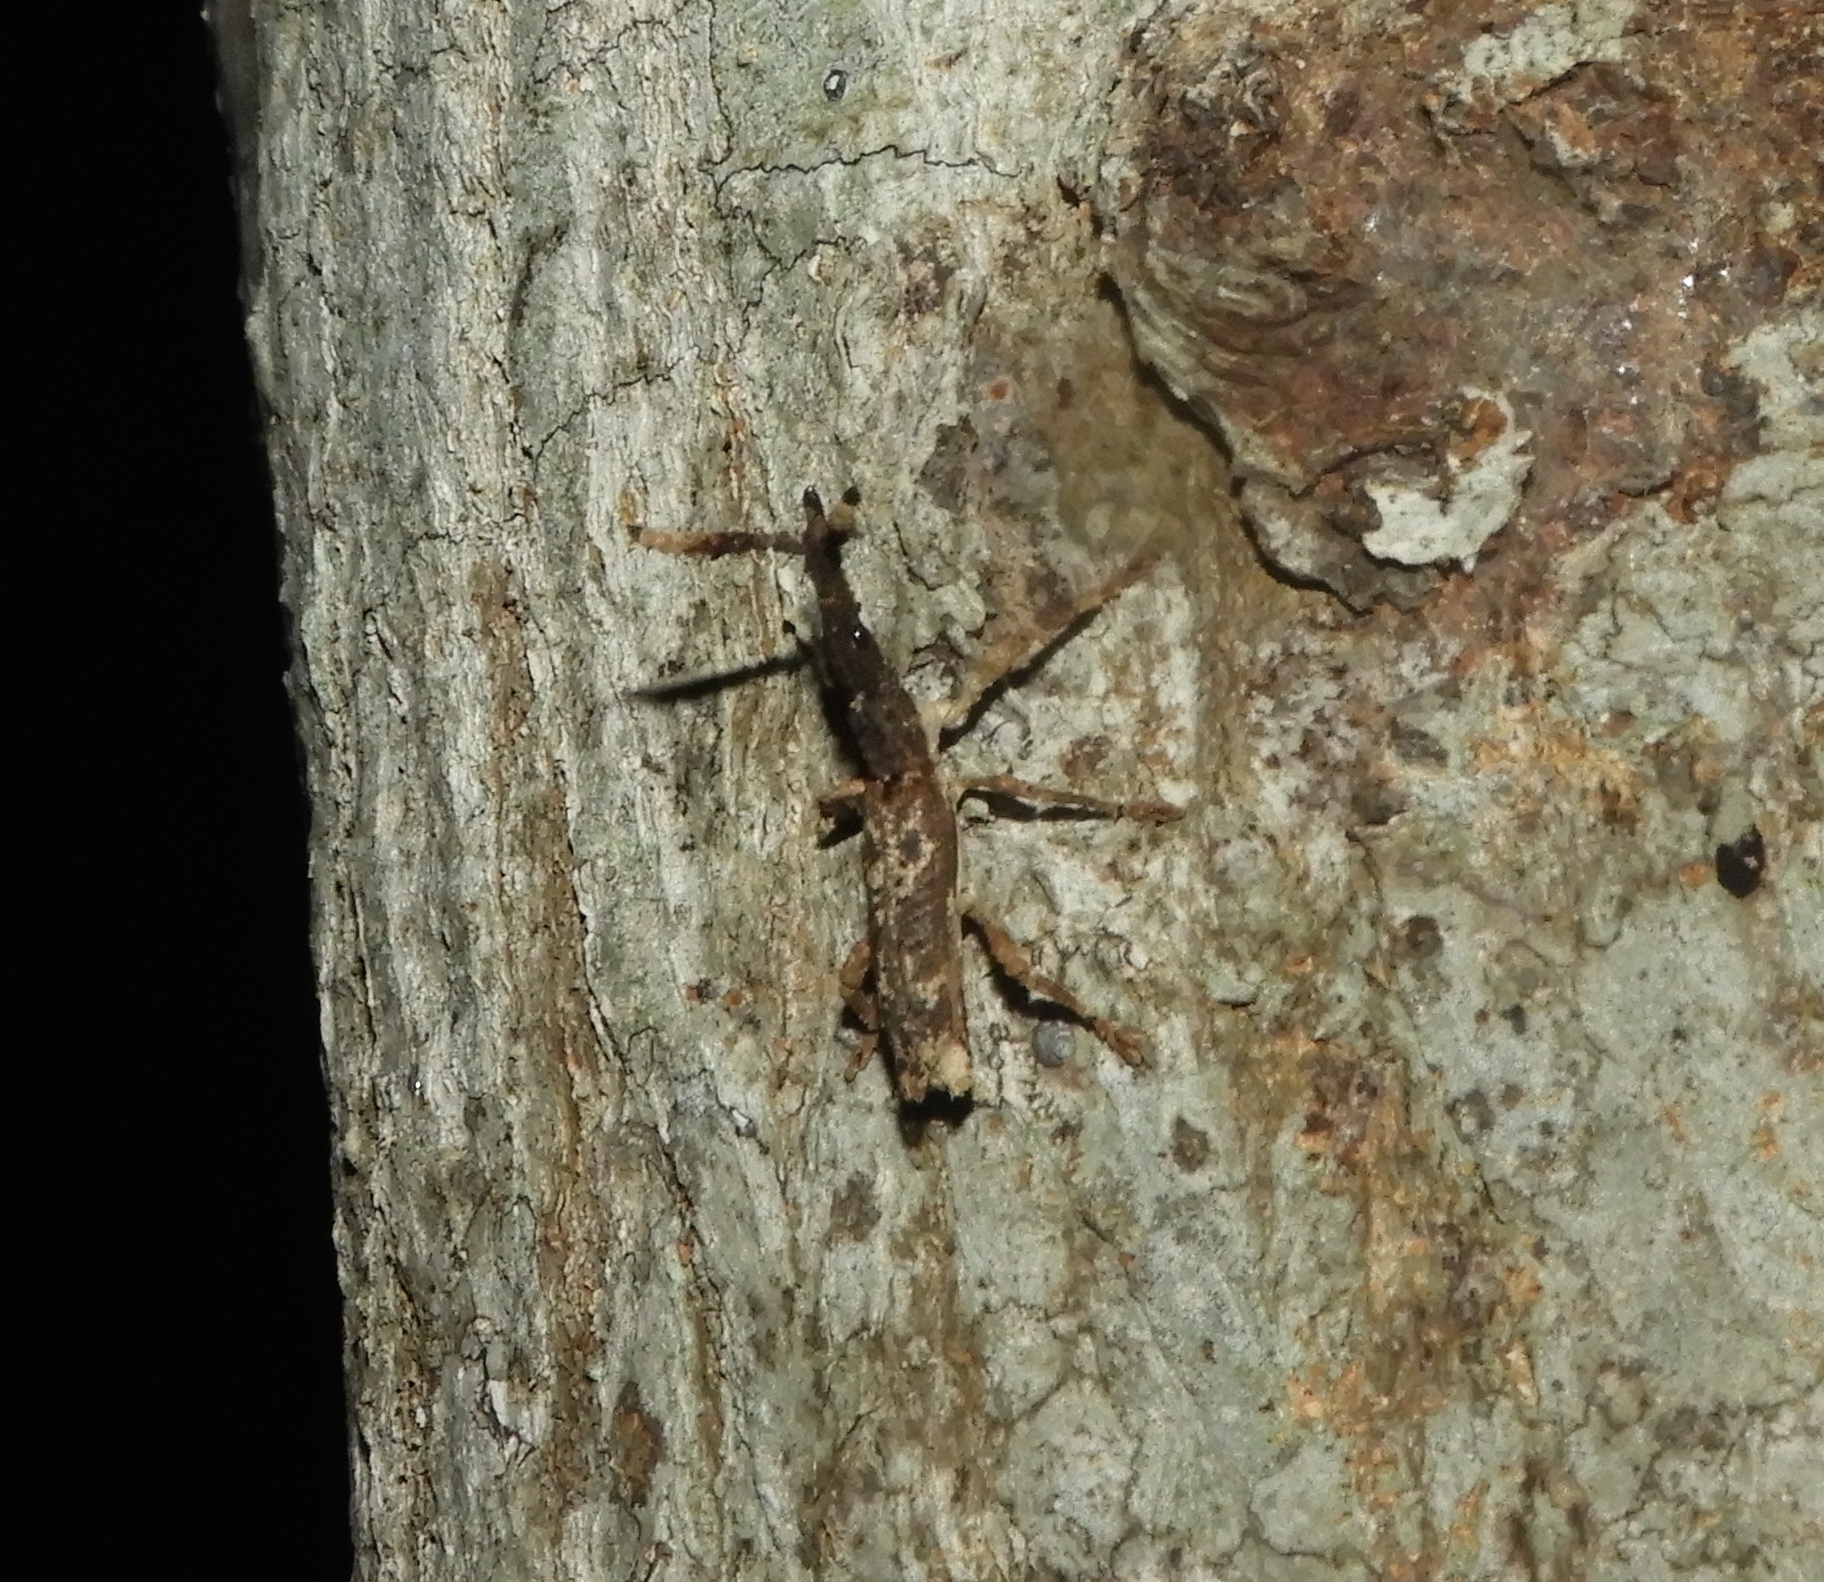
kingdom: Animalia
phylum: Arthropoda
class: Insecta
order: Coleoptera
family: Brentidae
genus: Ulocerus
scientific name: Ulocerus mexicanus
